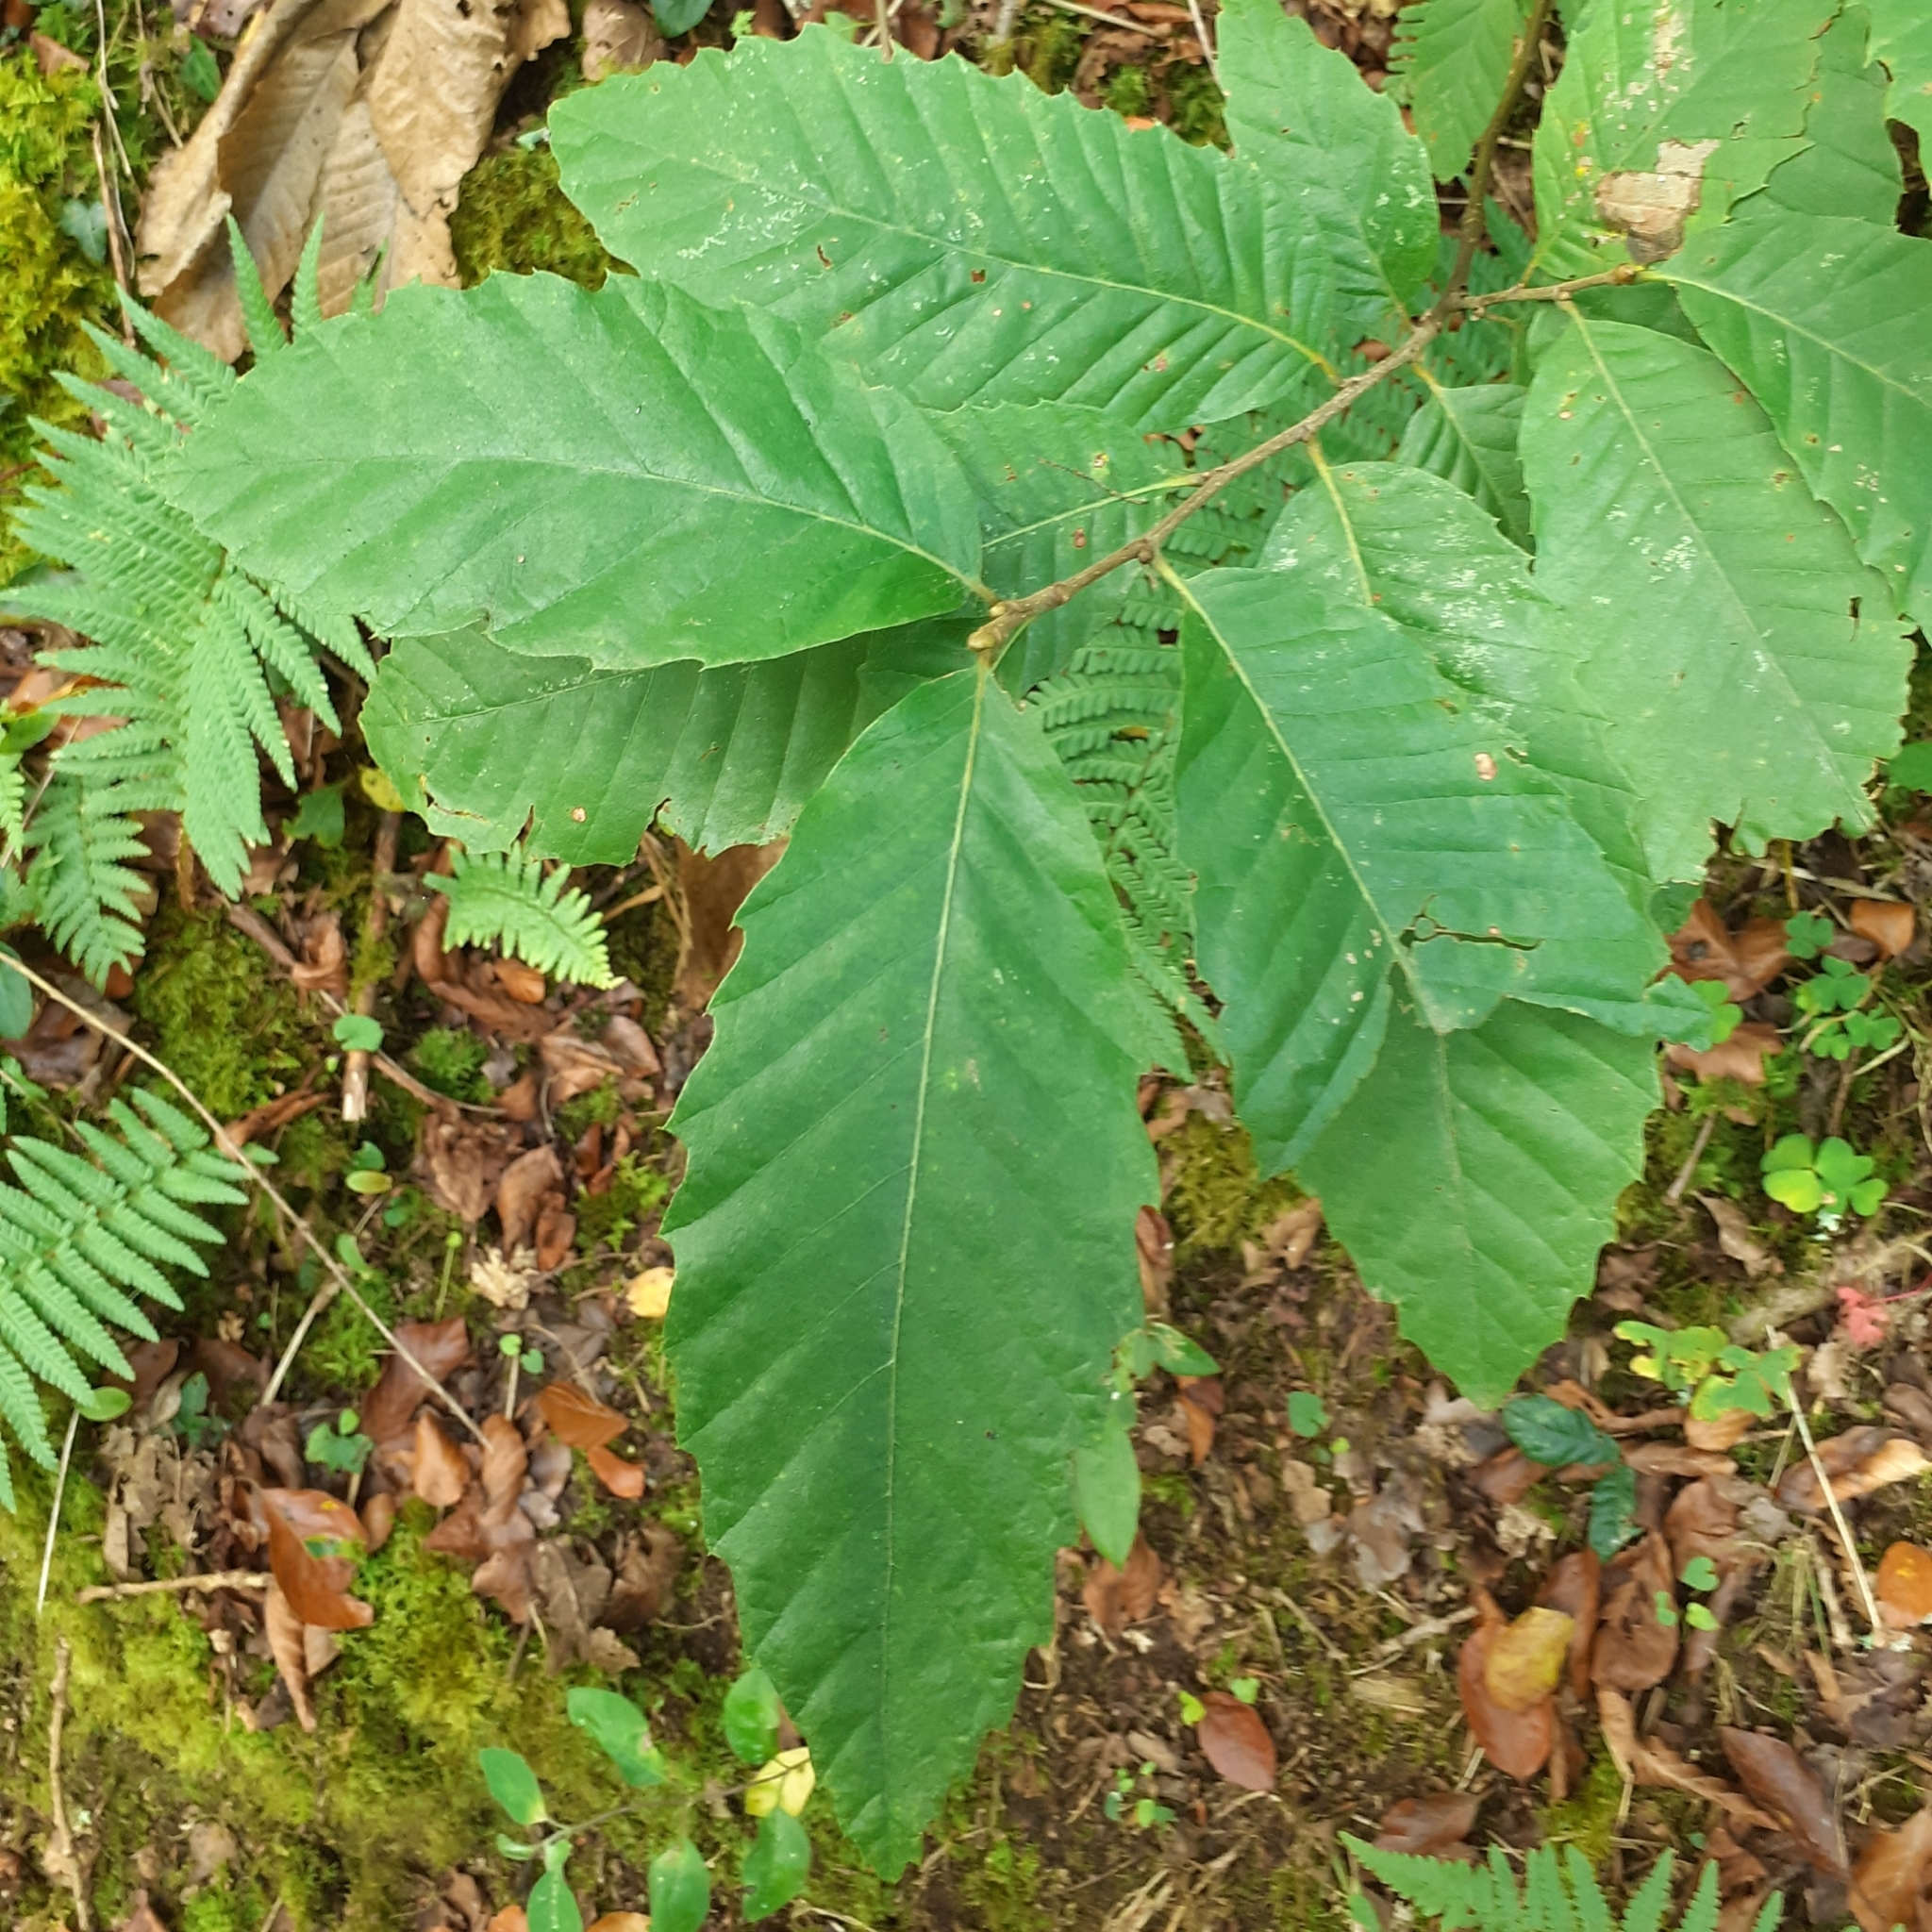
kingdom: Plantae
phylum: Tracheophyta
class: Magnoliopsida
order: Fagales
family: Fagaceae
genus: Castanea
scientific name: Castanea sativa
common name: Sweet chestnut
